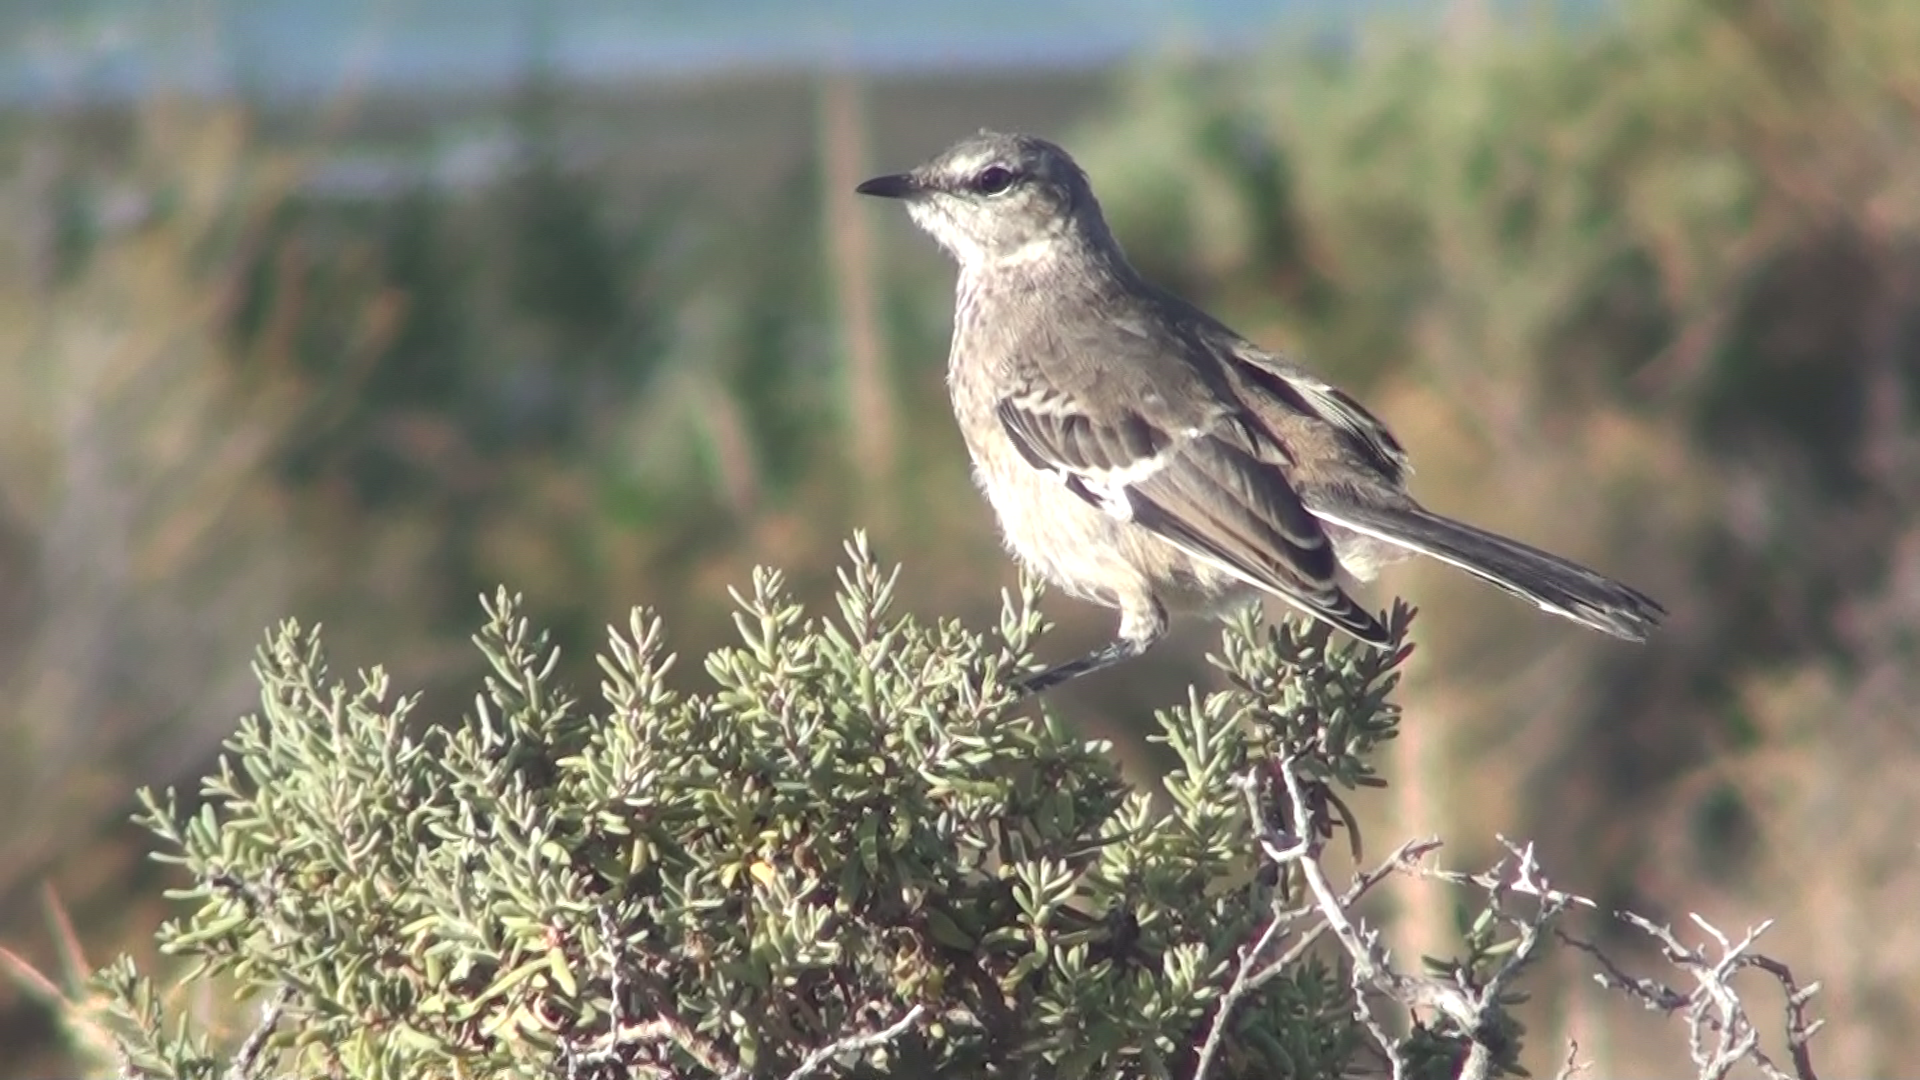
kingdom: Animalia
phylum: Chordata
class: Aves
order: Passeriformes
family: Mimidae
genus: Mimus
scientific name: Mimus patagonicus
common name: Patagonian mockingbird
